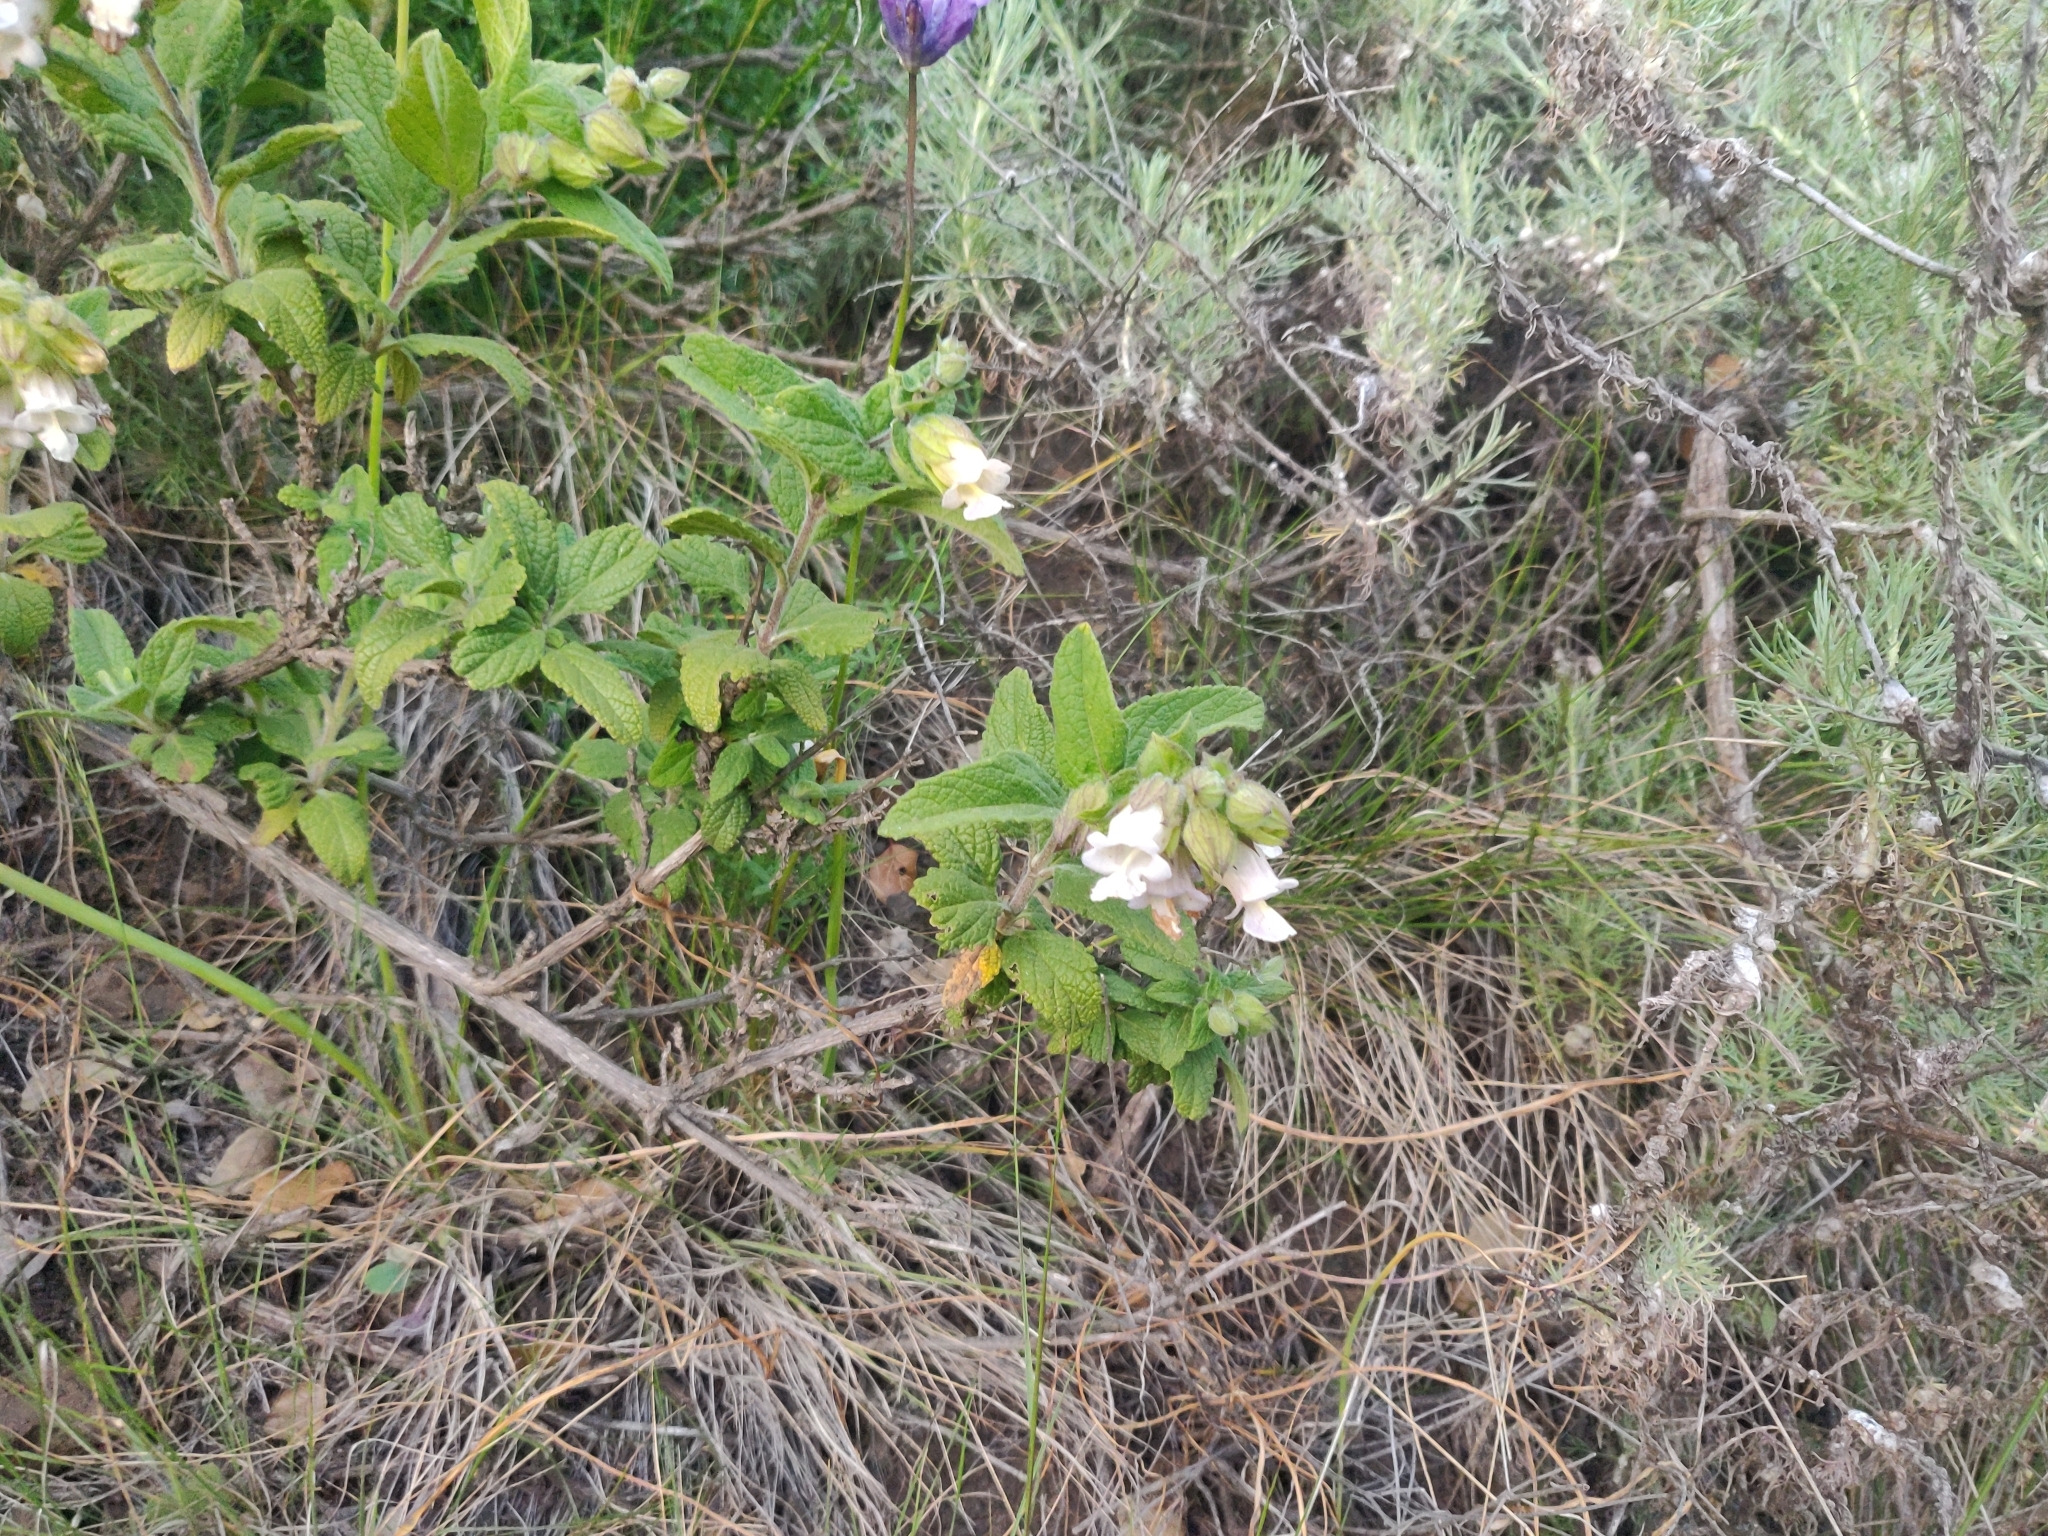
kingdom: Plantae
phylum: Tracheophyta
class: Magnoliopsida
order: Lamiales
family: Lamiaceae
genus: Lepechinia
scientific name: Lepechinia calycina
